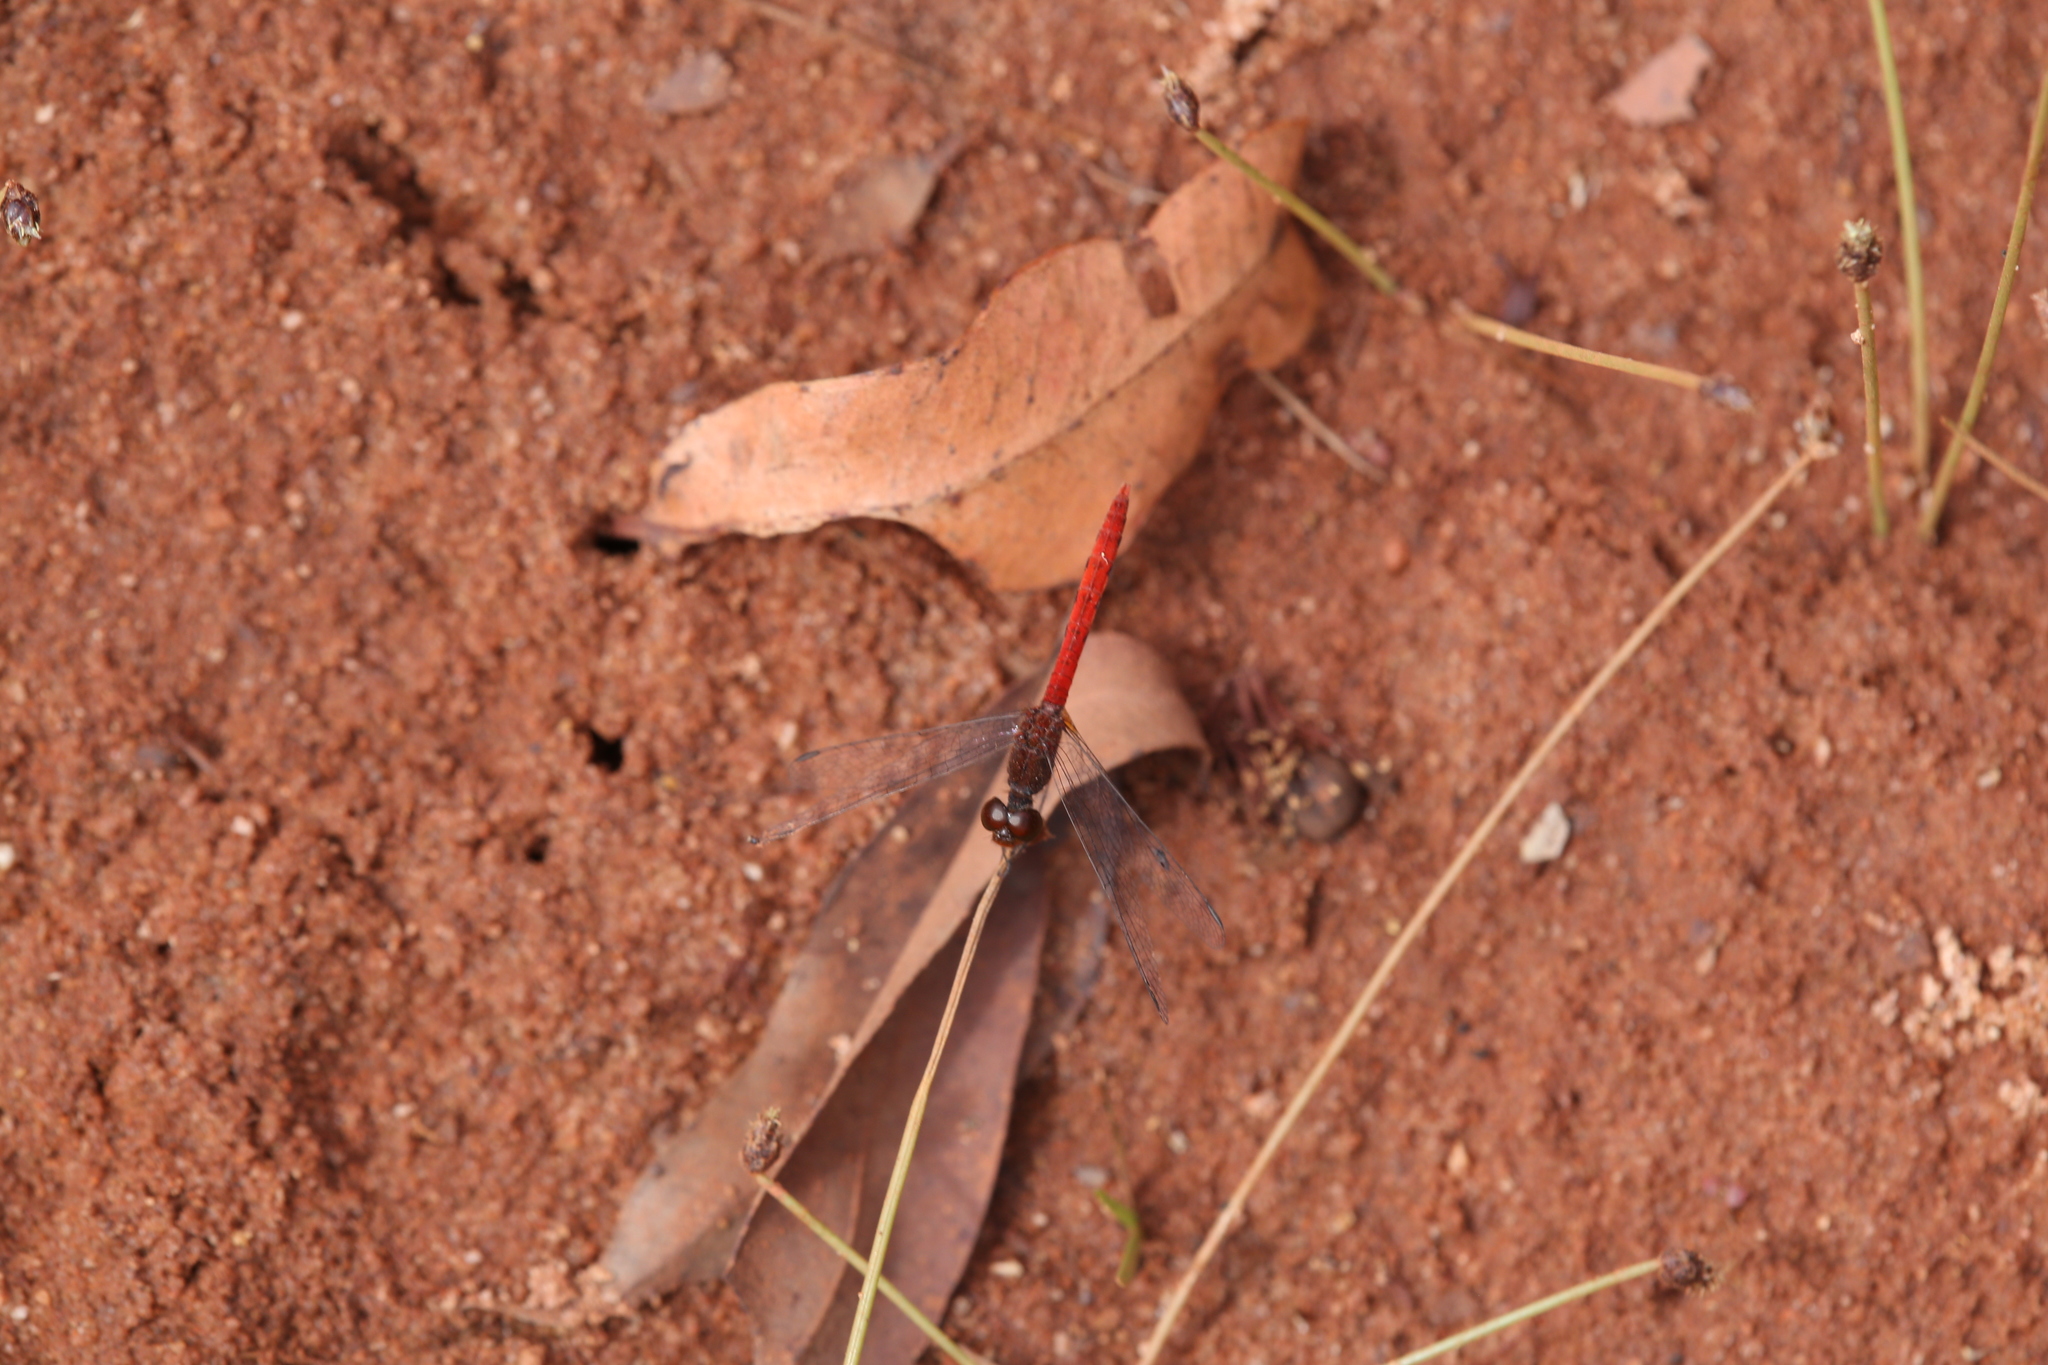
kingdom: Animalia
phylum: Arthropoda
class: Insecta
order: Odonata
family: Libellulidae
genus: Nannodiplax
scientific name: Nannodiplax rubra
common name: Pygmy percher
